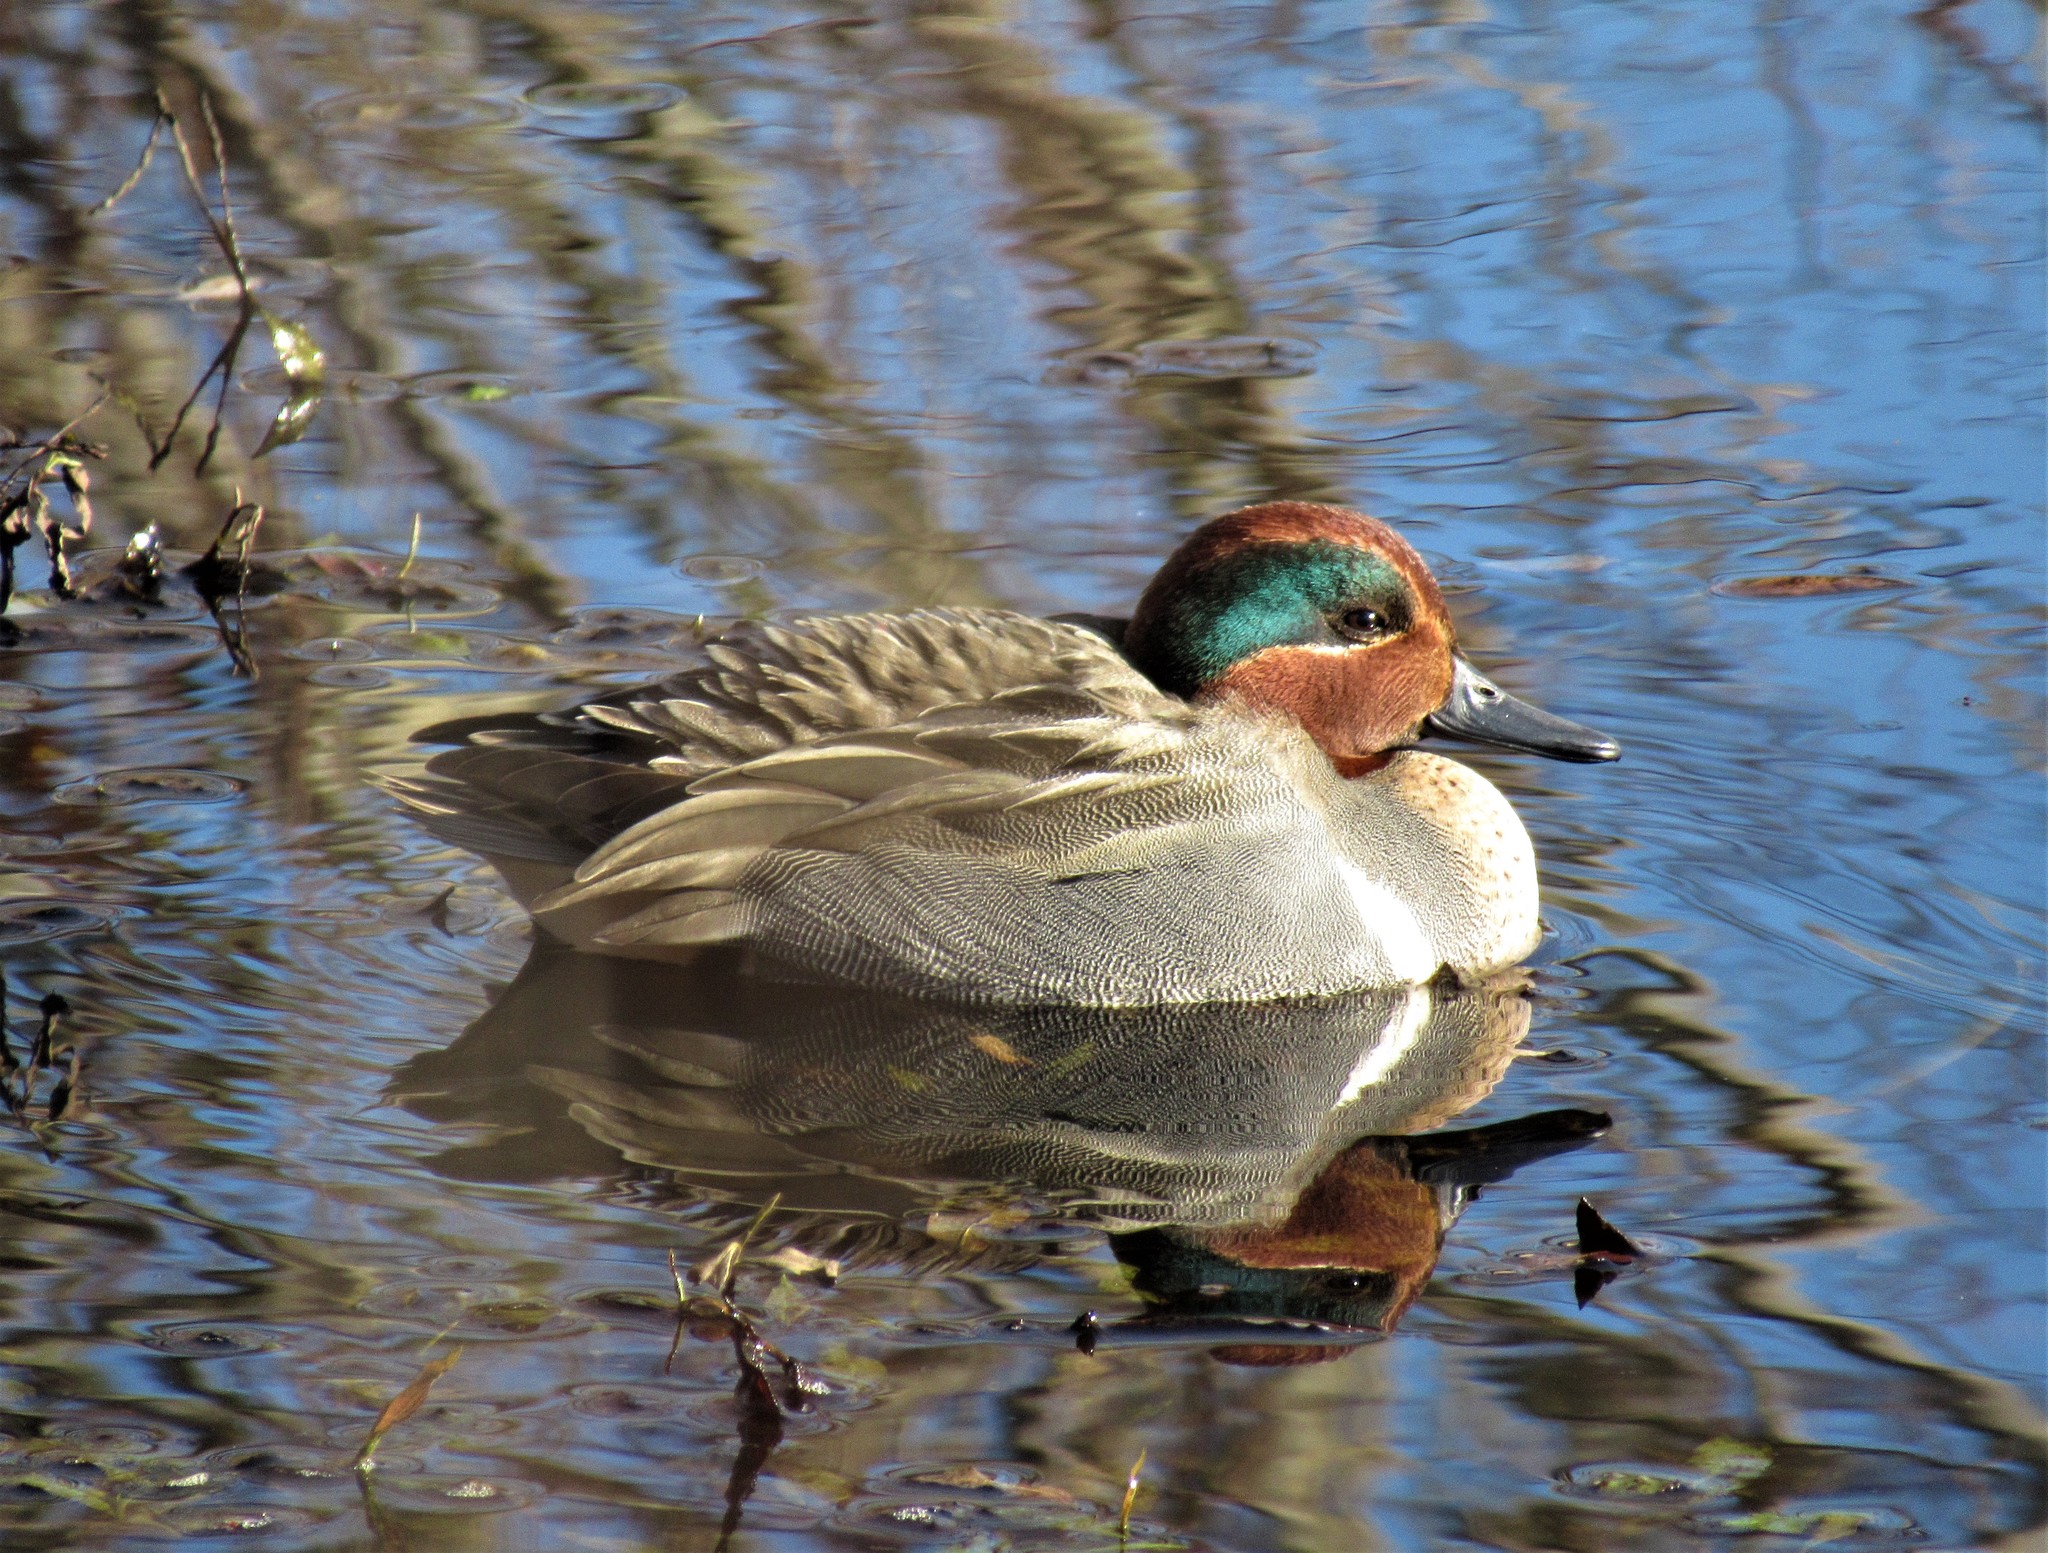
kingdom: Animalia
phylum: Chordata
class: Aves
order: Anseriformes
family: Anatidae
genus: Anas
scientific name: Anas carolinensis
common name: Green-winged teal
